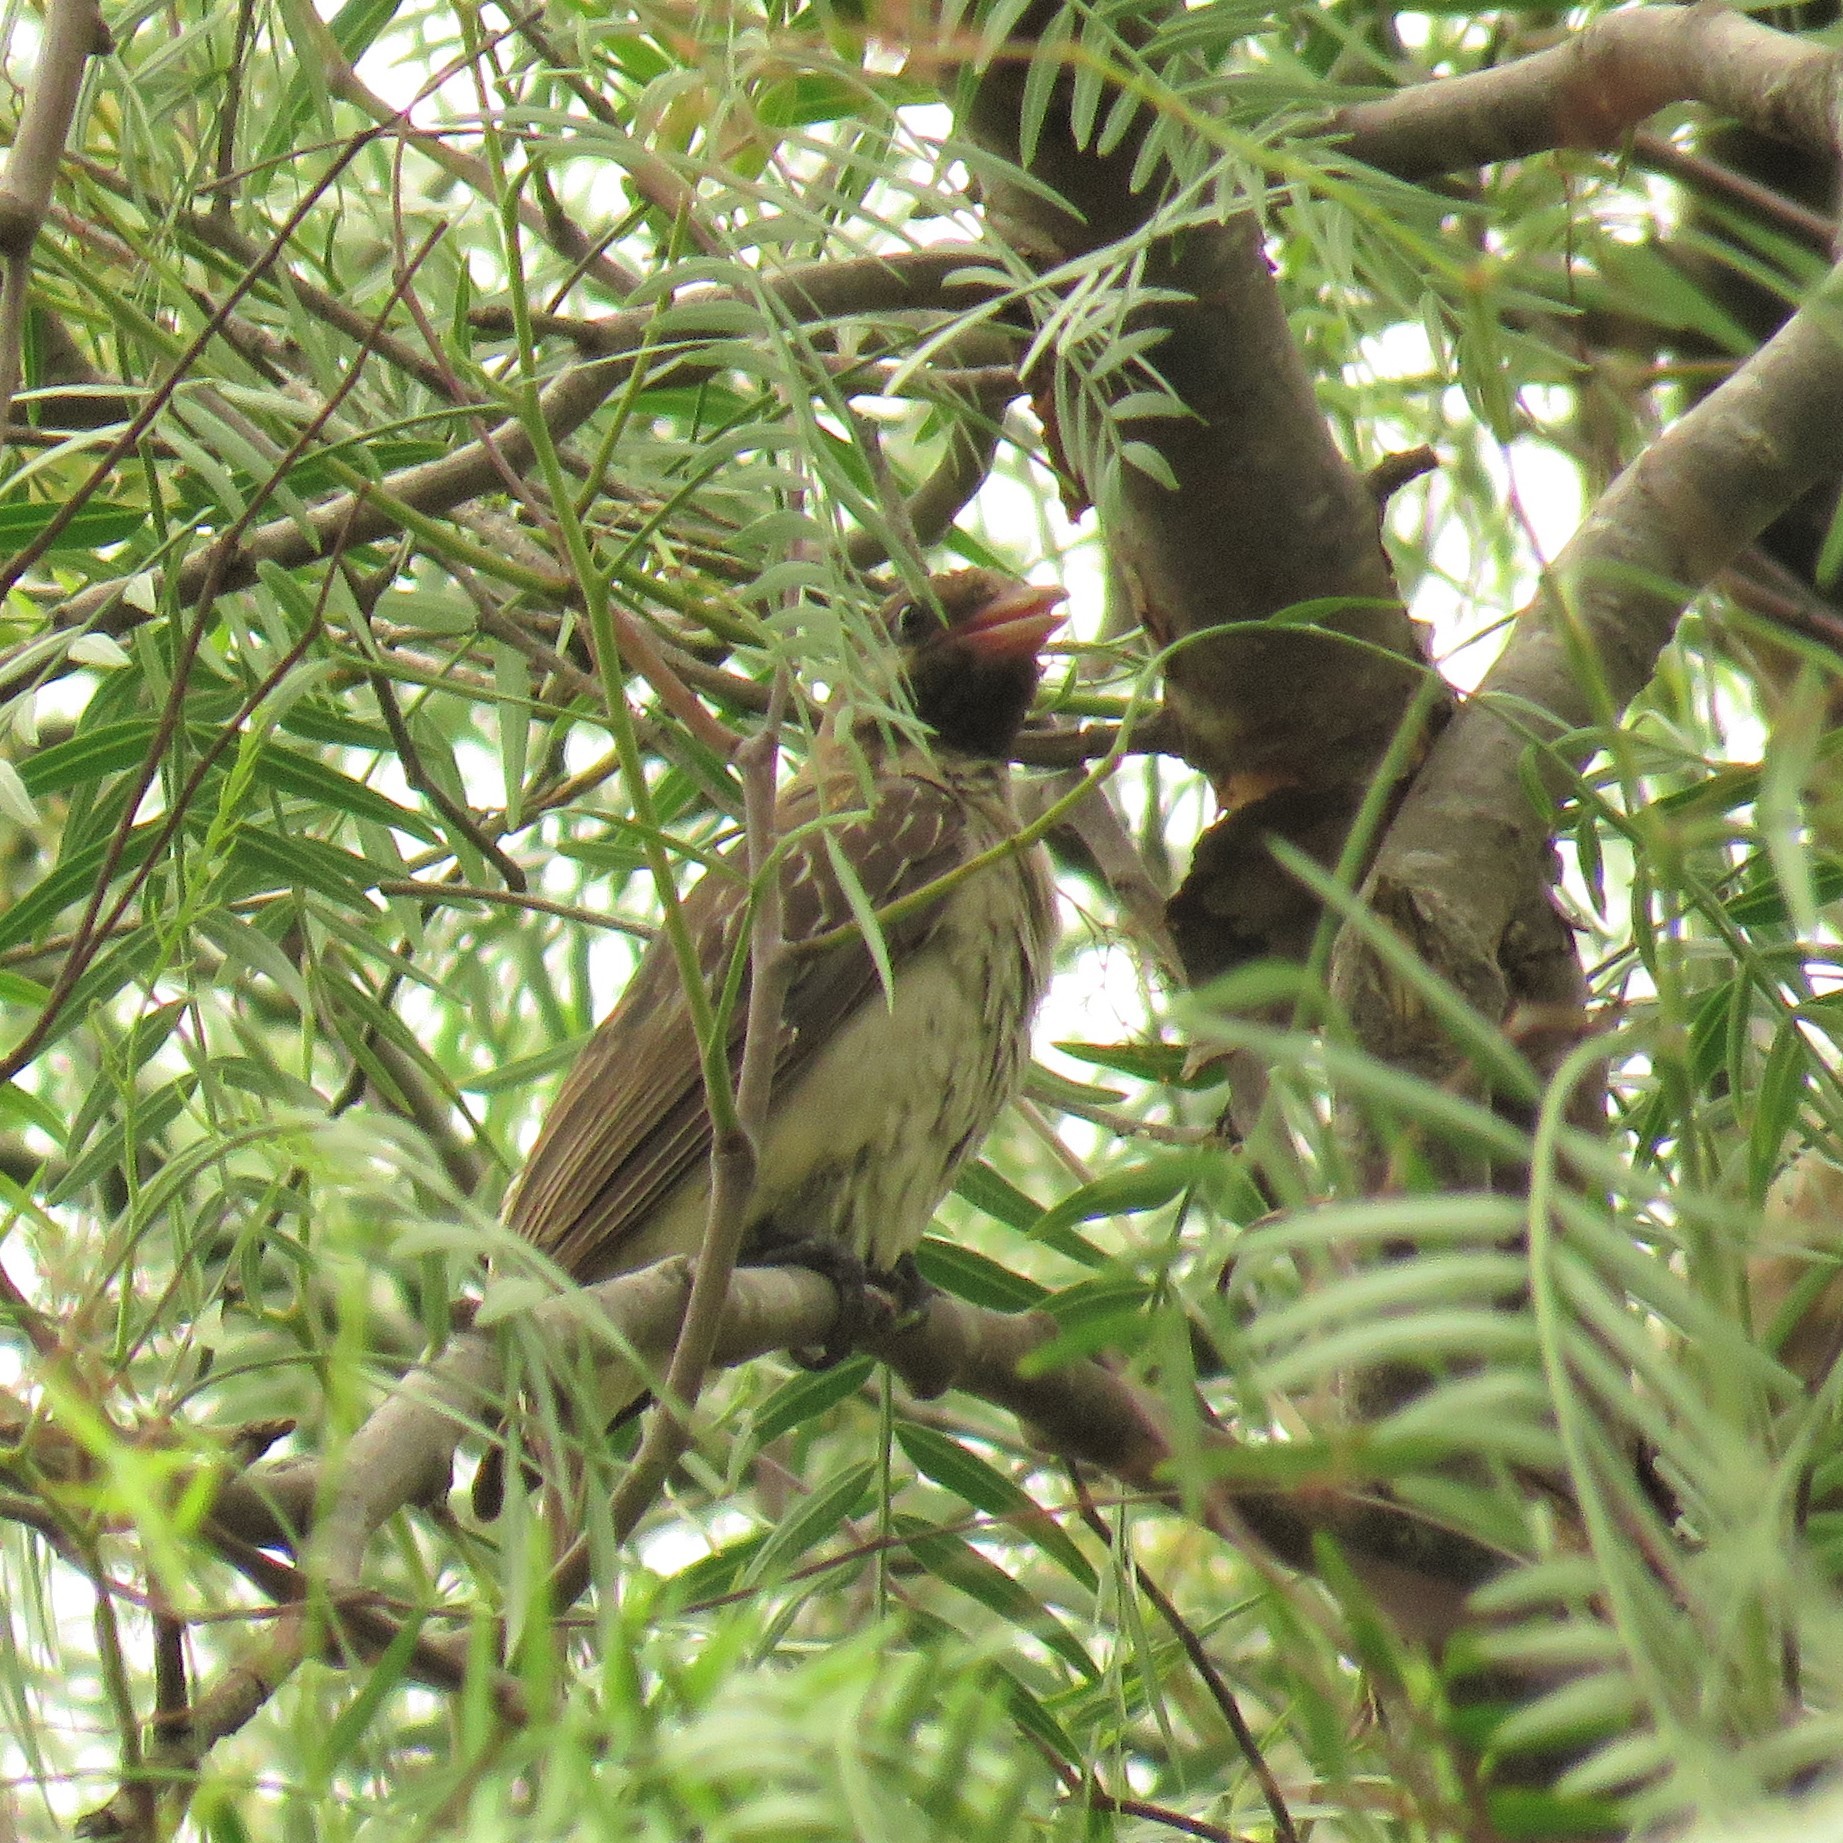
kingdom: Animalia
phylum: Chordata
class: Aves
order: Piciformes
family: Indicatoridae
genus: Indicator
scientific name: Indicator indicator
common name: Greater honeyguide
